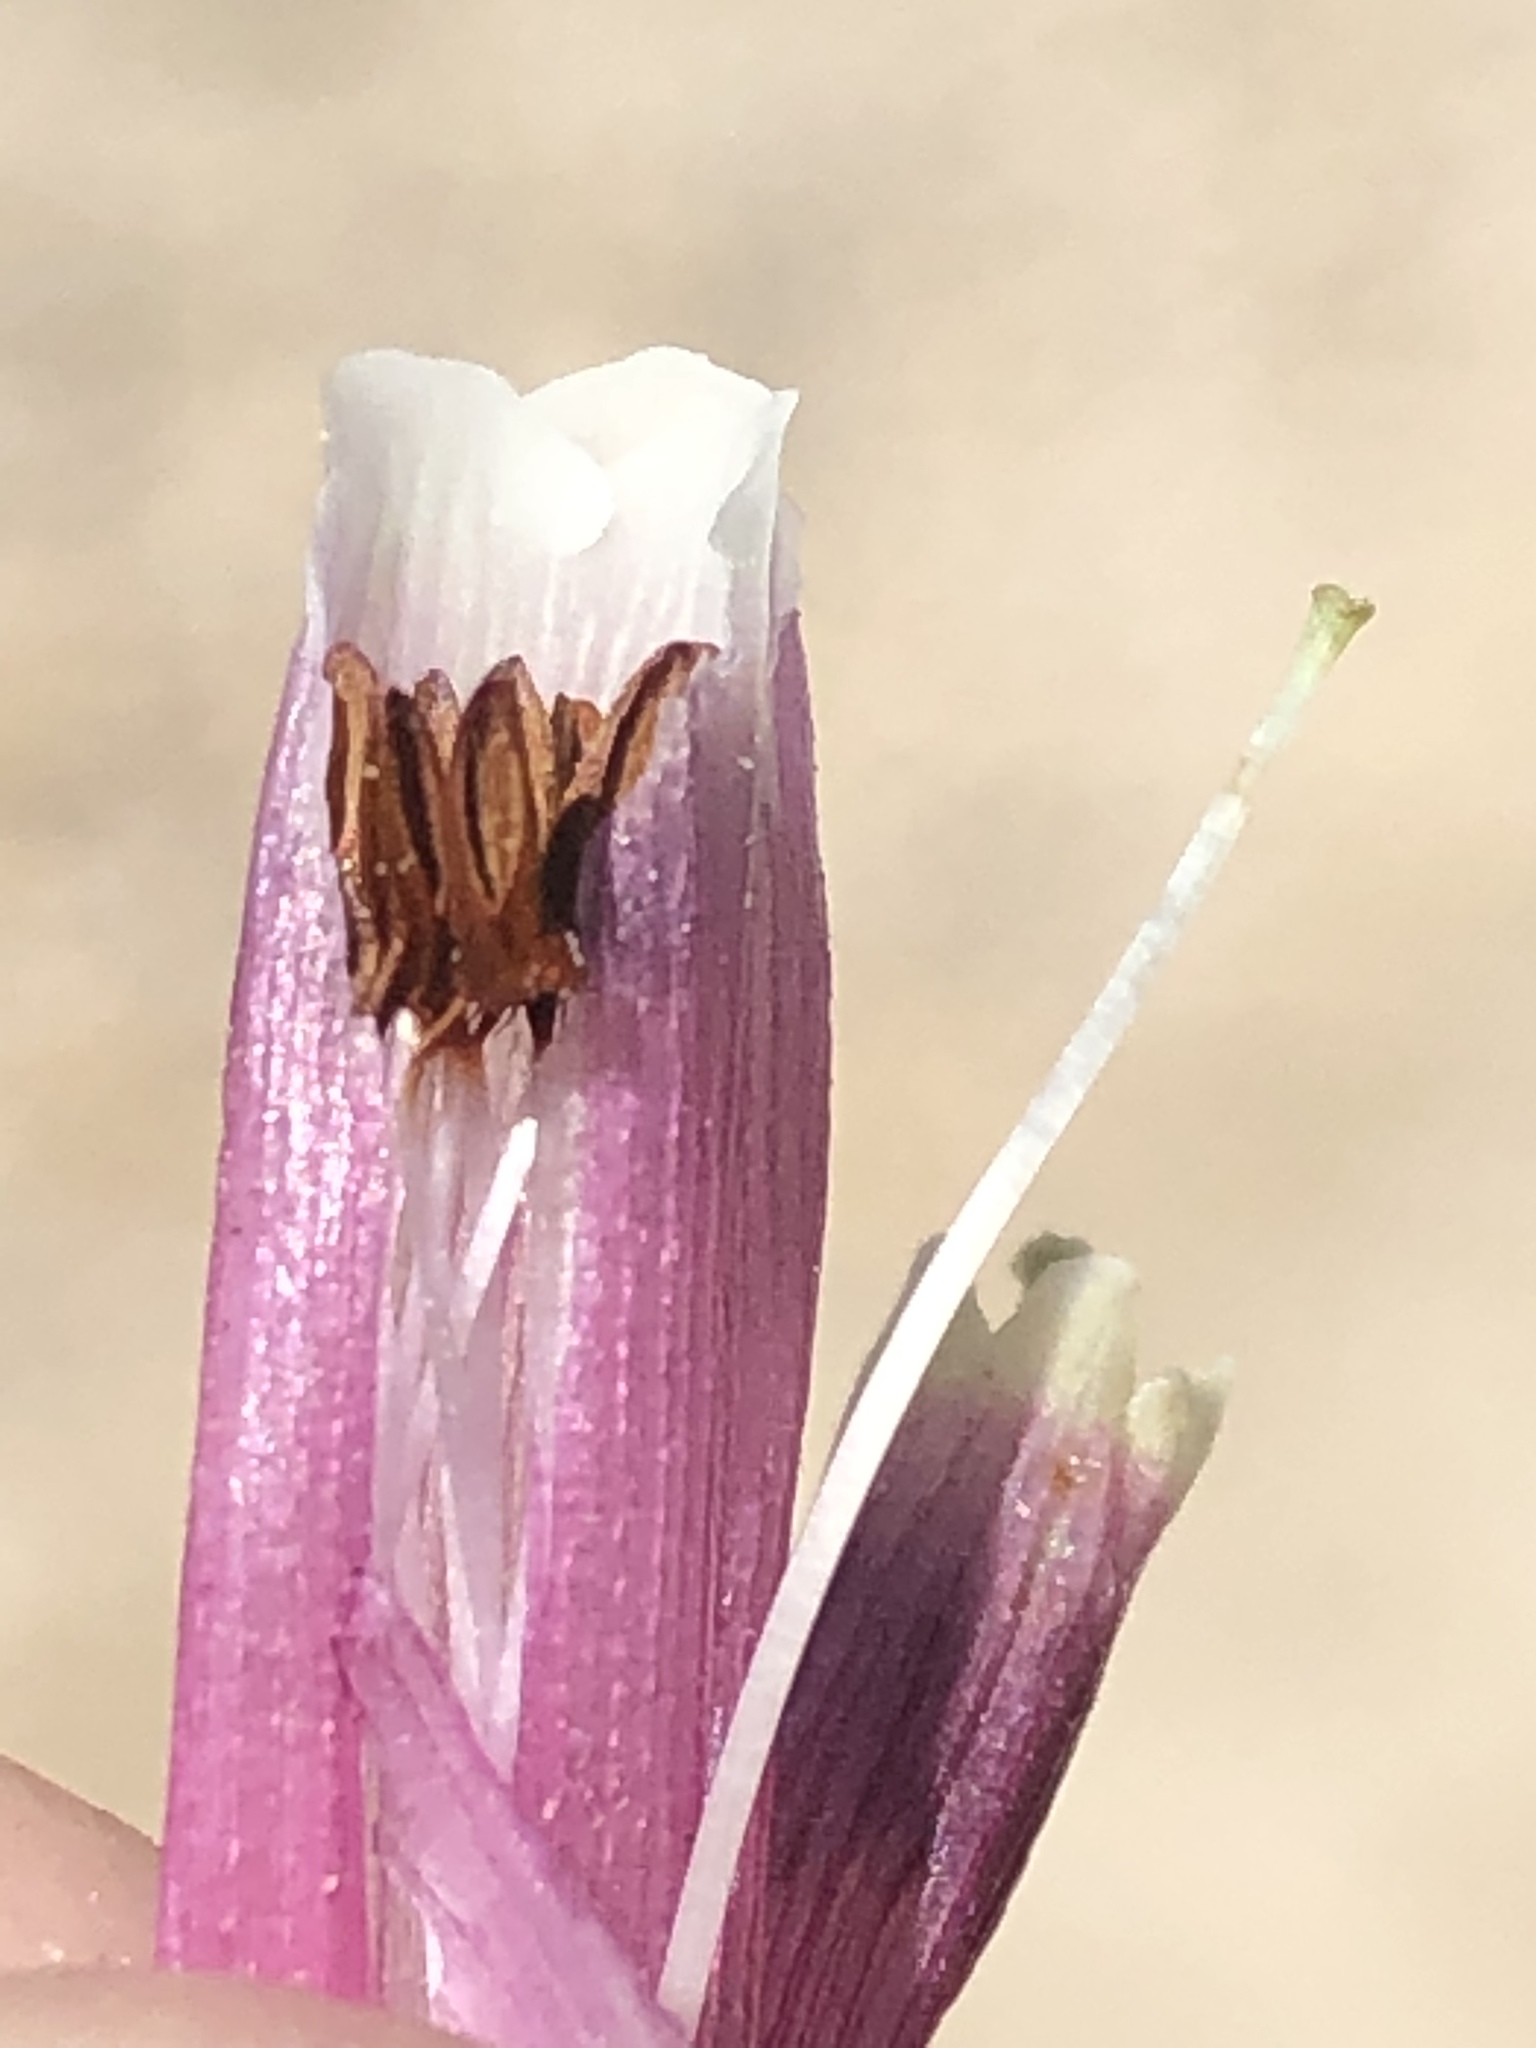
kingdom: Plantae
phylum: Tracheophyta
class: Magnoliopsida
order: Ericales
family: Ericaceae
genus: Erica
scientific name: Erica diaphana
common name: Heath
